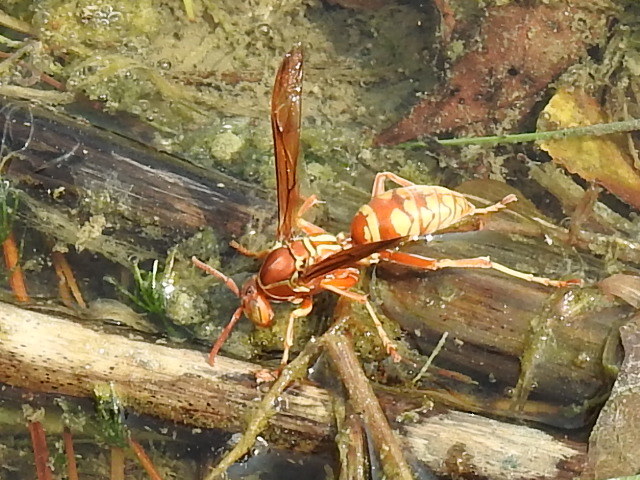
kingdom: Animalia
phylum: Arthropoda
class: Insecta
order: Hymenoptera
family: Eumenidae
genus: Polistes
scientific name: Polistes apachus
